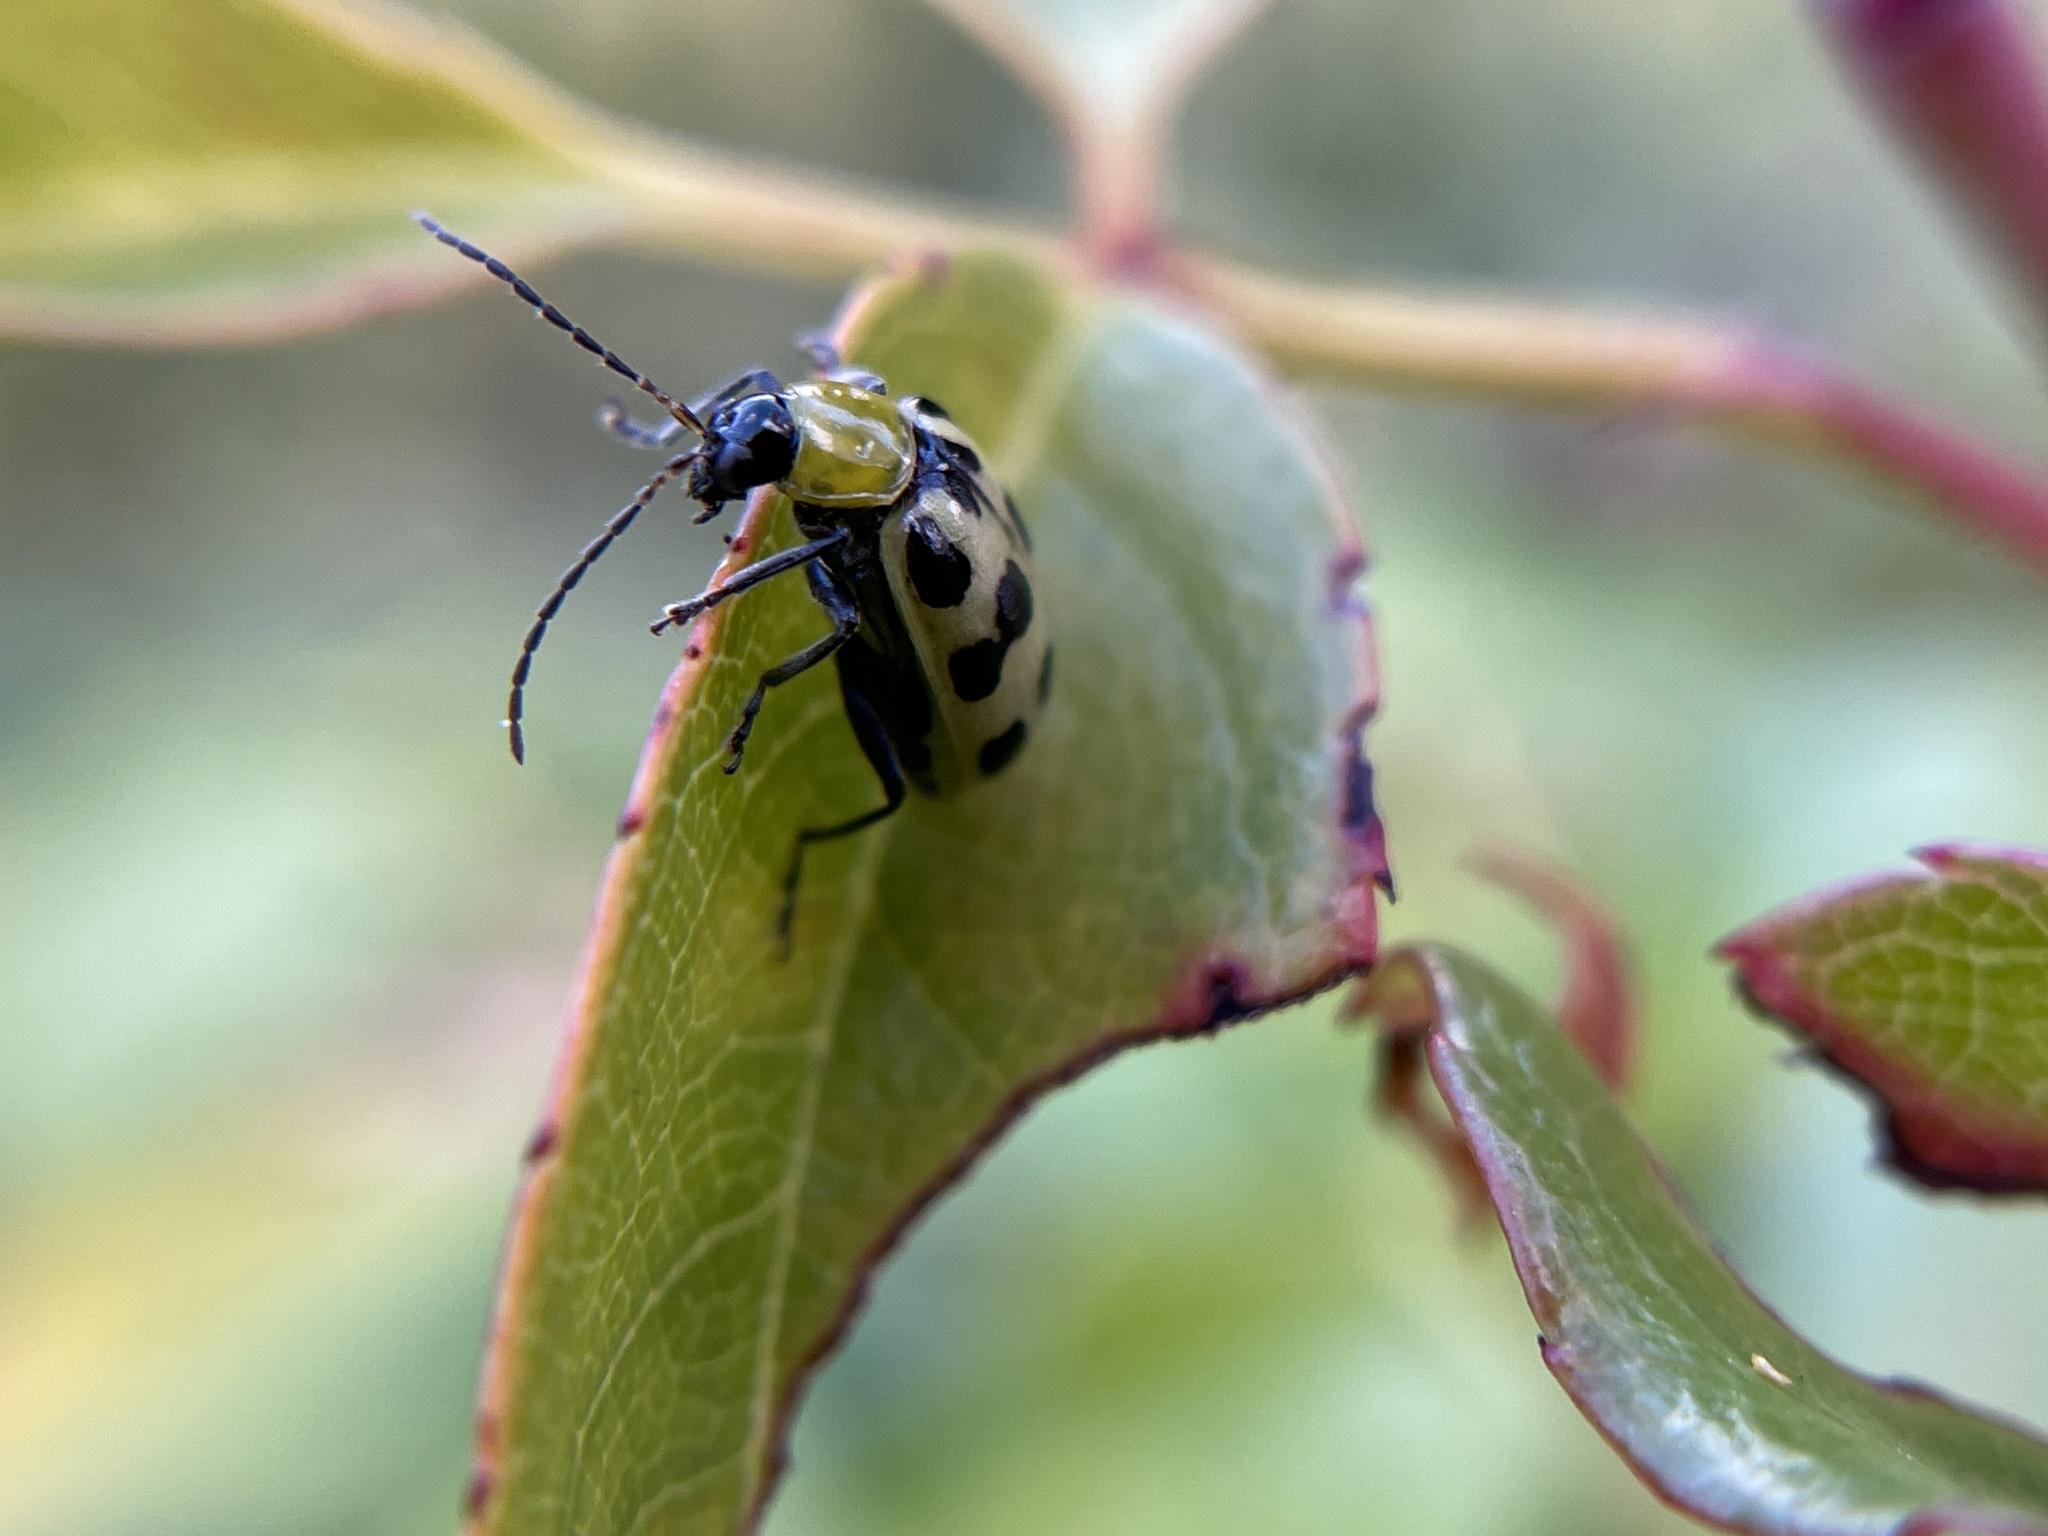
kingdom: Animalia
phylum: Arthropoda
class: Insecta
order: Coleoptera
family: Chrysomelidae
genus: Diabrotica
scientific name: Diabrotica undecimpunctata
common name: Spotted cucumber beetle
